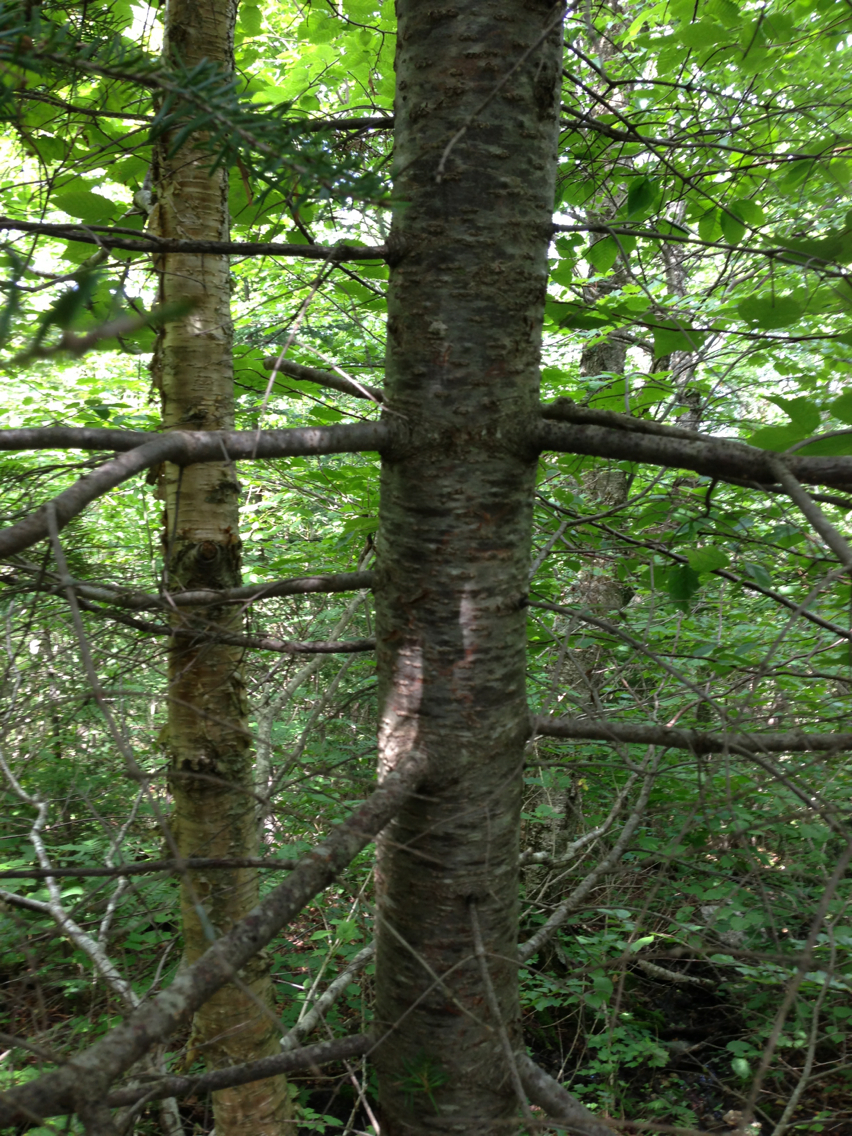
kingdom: Plantae
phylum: Tracheophyta
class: Pinopsida
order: Pinales
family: Pinaceae
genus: Abies
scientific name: Abies balsamea
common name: Balsam fir
